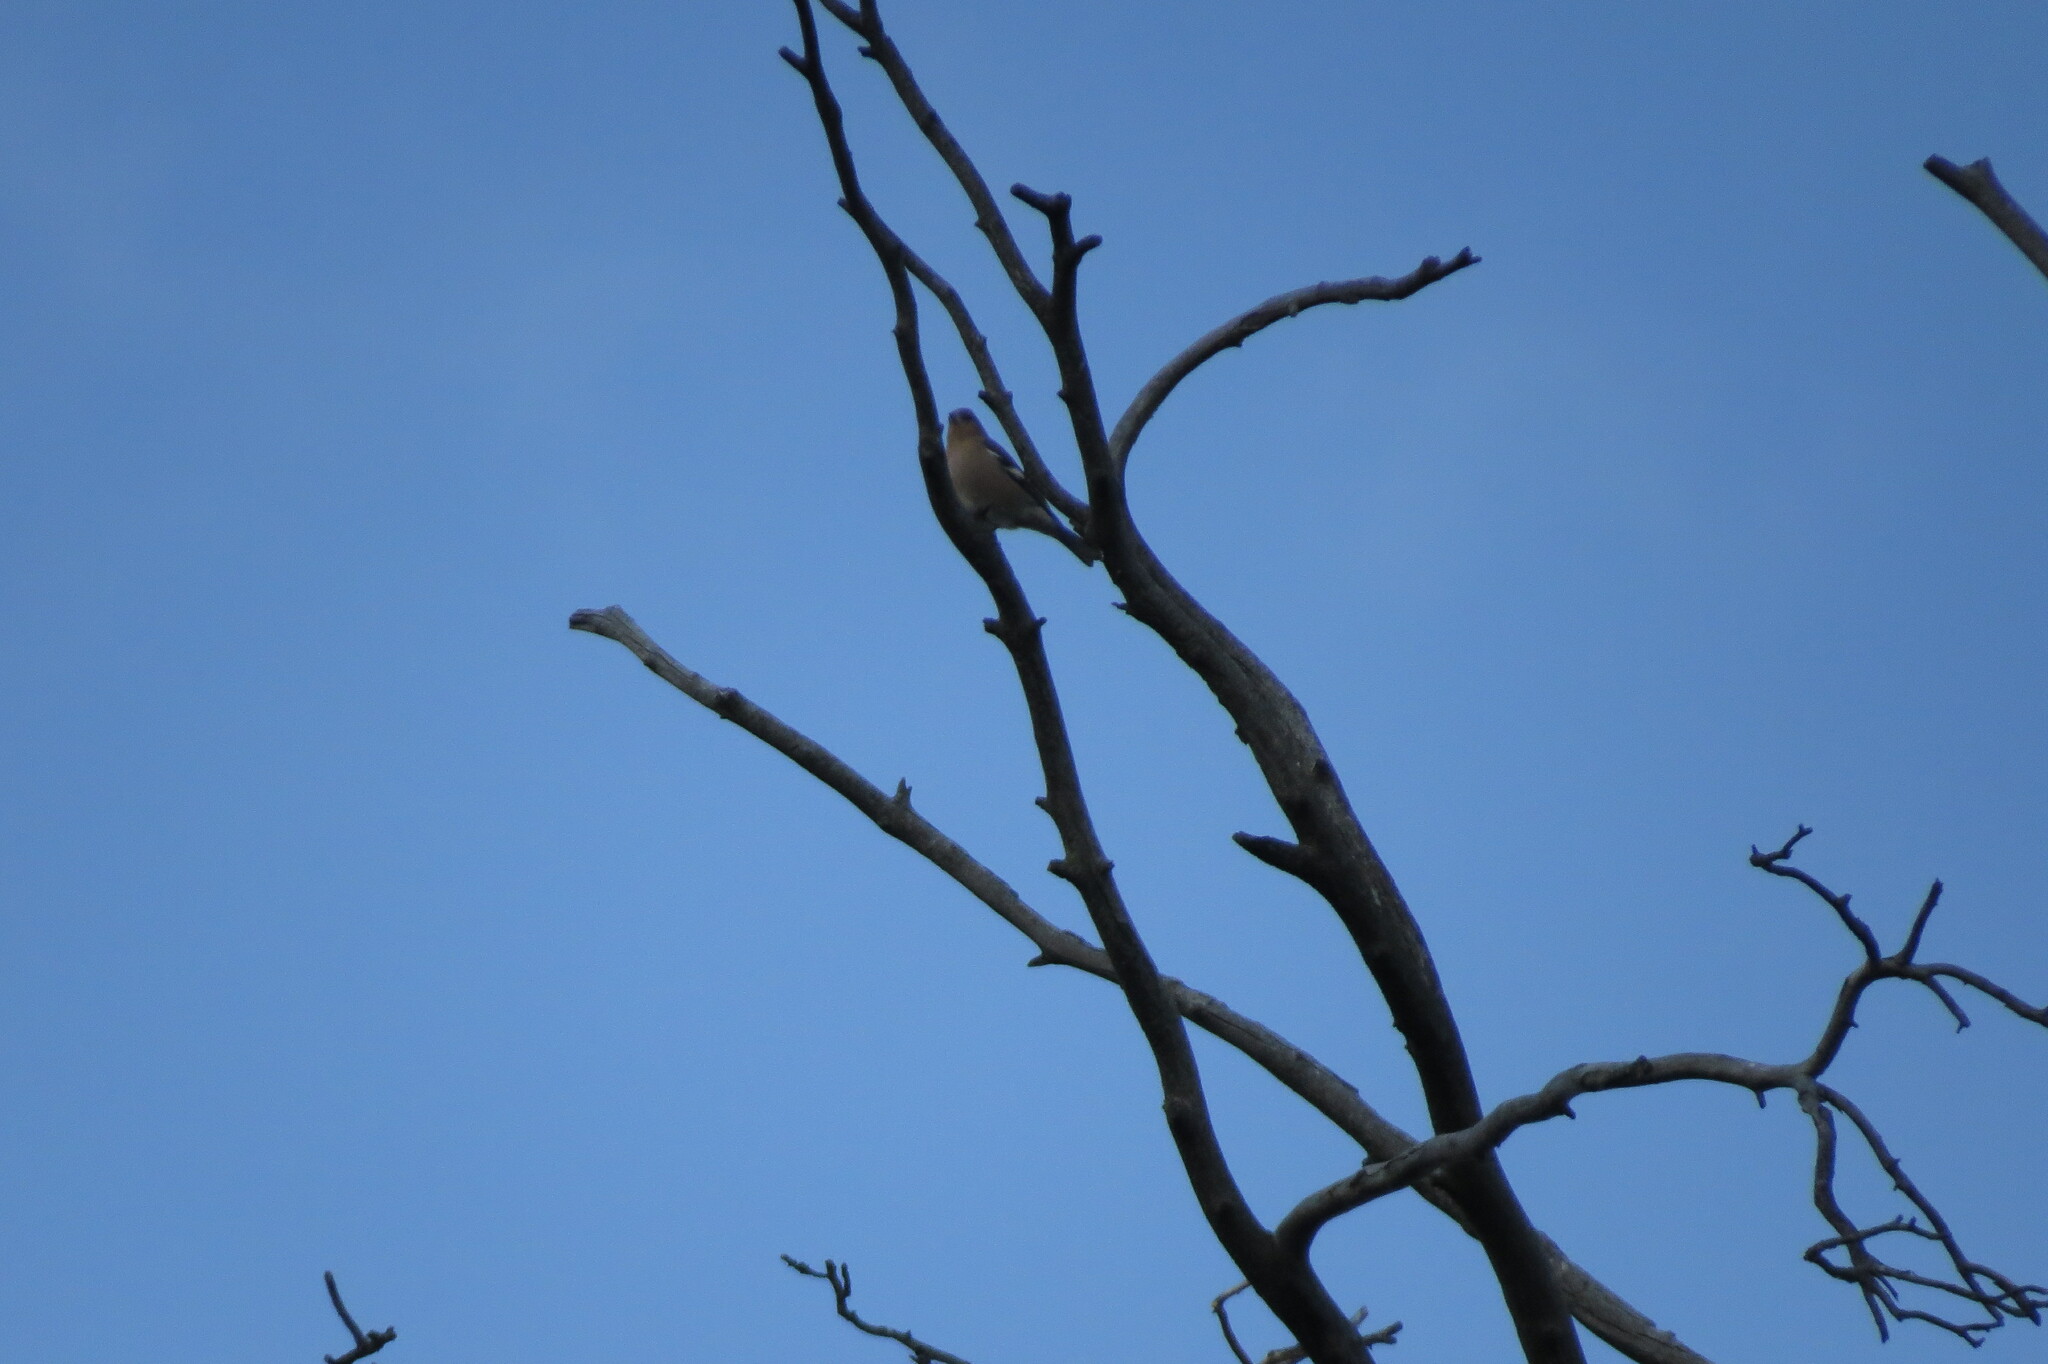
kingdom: Animalia
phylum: Chordata
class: Aves
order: Passeriformes
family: Fringillidae
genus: Fringilla
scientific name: Fringilla coelebs
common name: Common chaffinch
